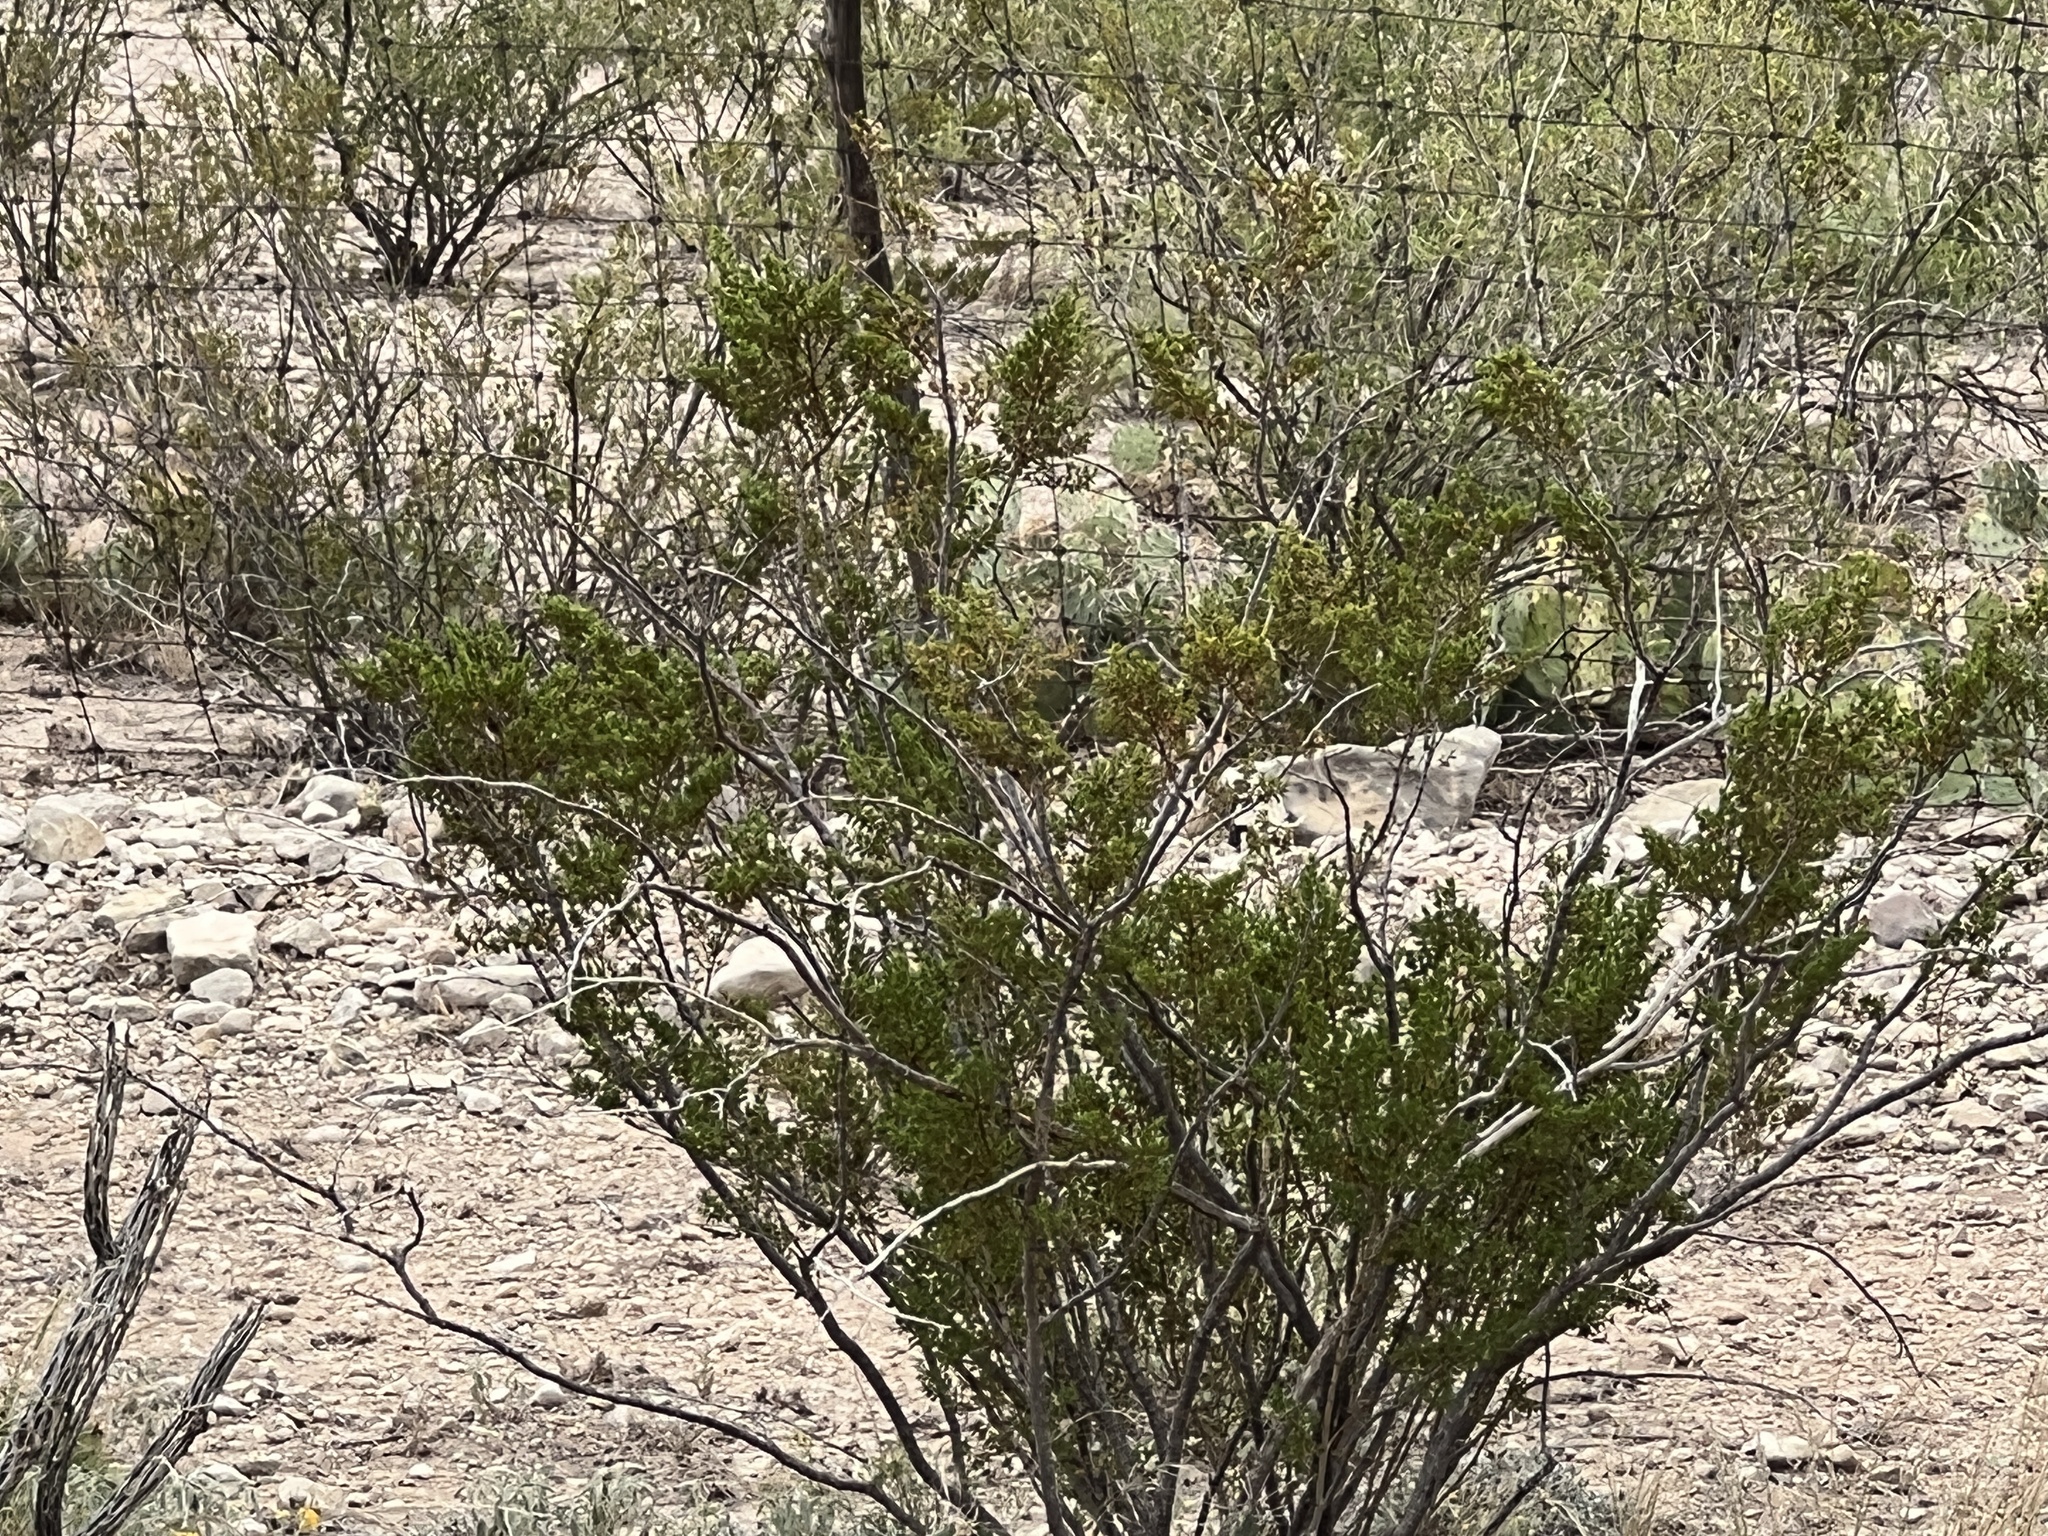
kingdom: Plantae
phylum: Tracheophyta
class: Magnoliopsida
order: Zygophyllales
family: Zygophyllaceae
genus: Larrea
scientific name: Larrea tridentata
